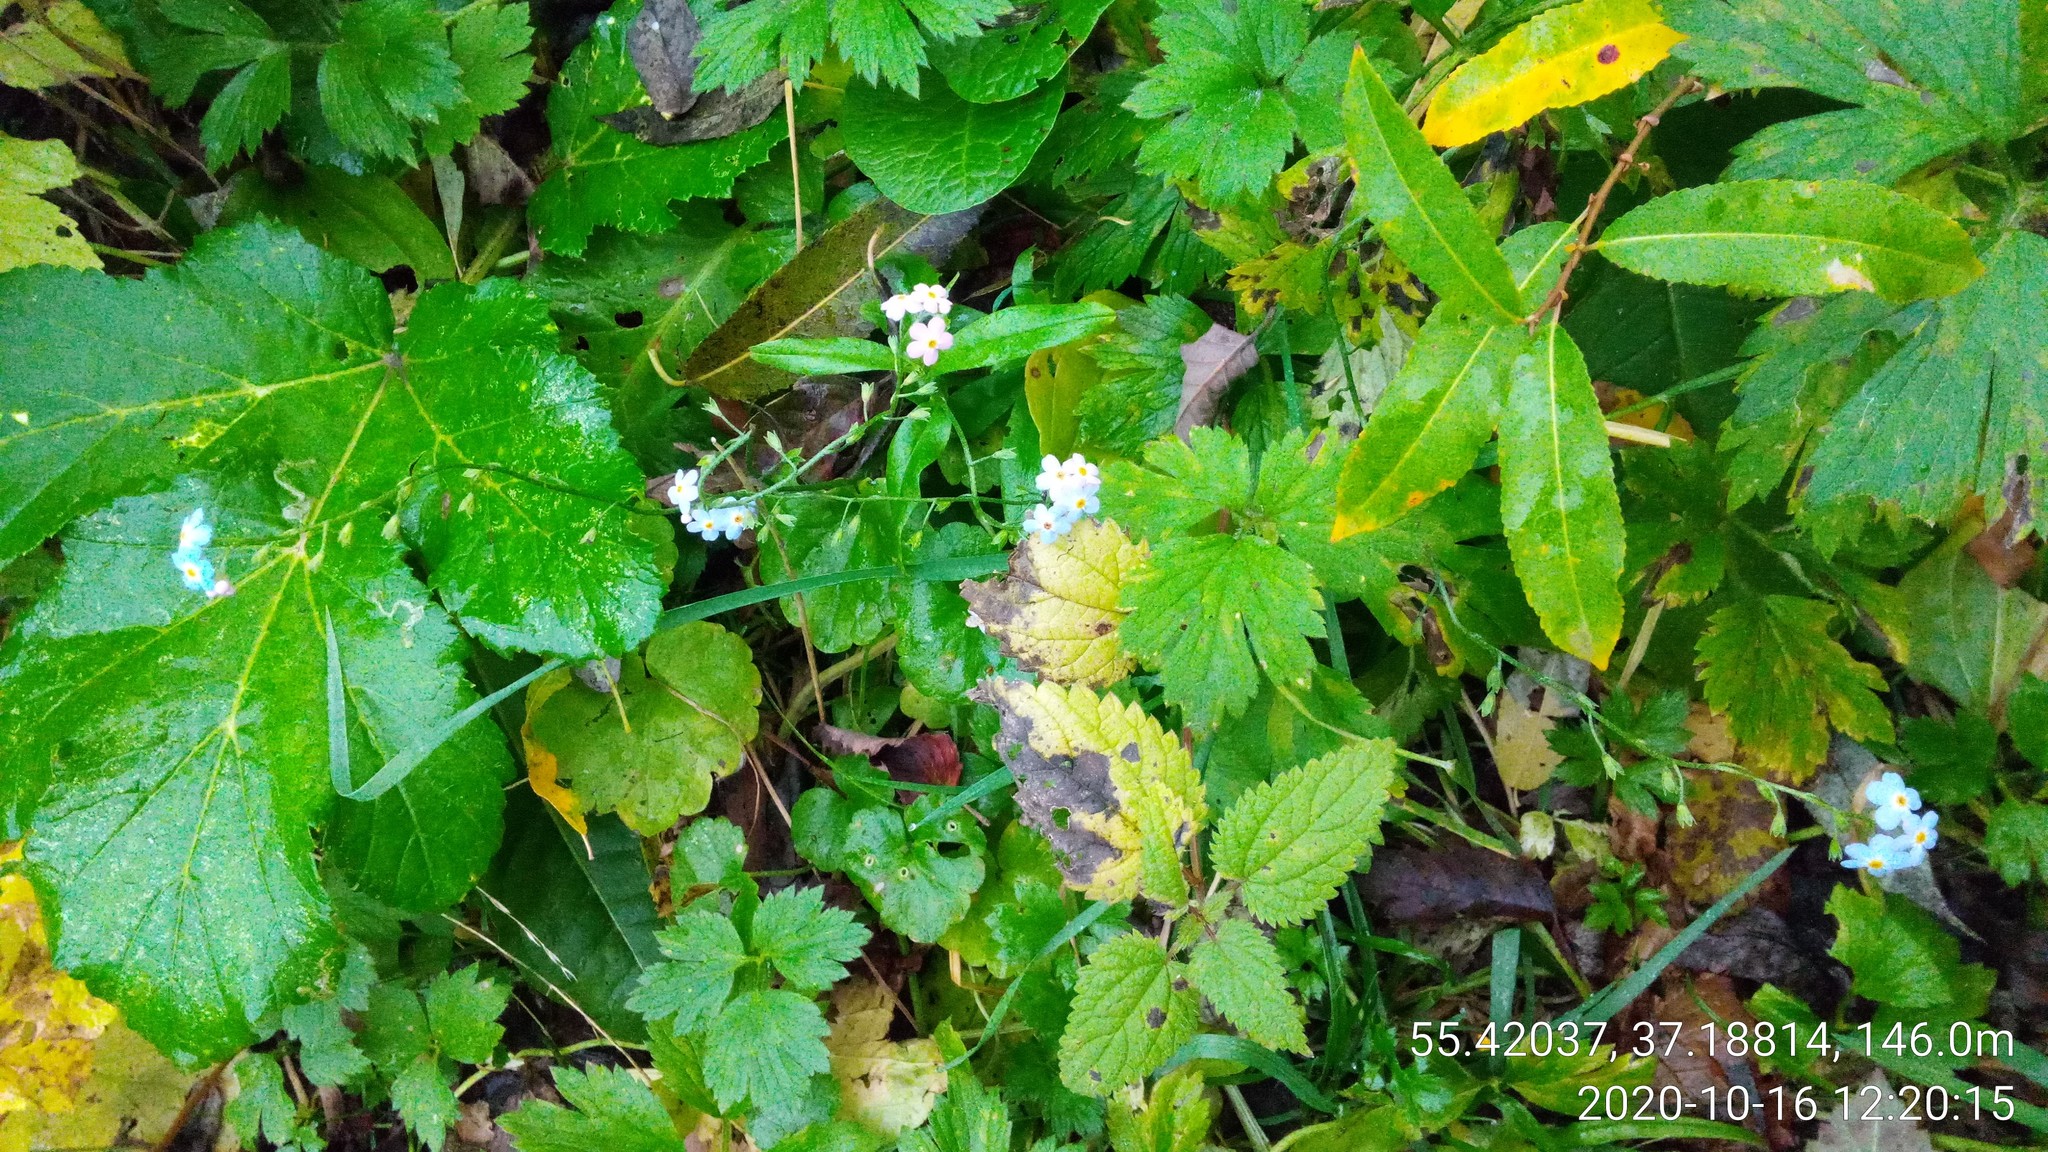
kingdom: Plantae
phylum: Tracheophyta
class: Magnoliopsida
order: Boraginales
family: Boraginaceae
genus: Myosotis
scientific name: Myosotis scorpioides
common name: Water forget-me-not
